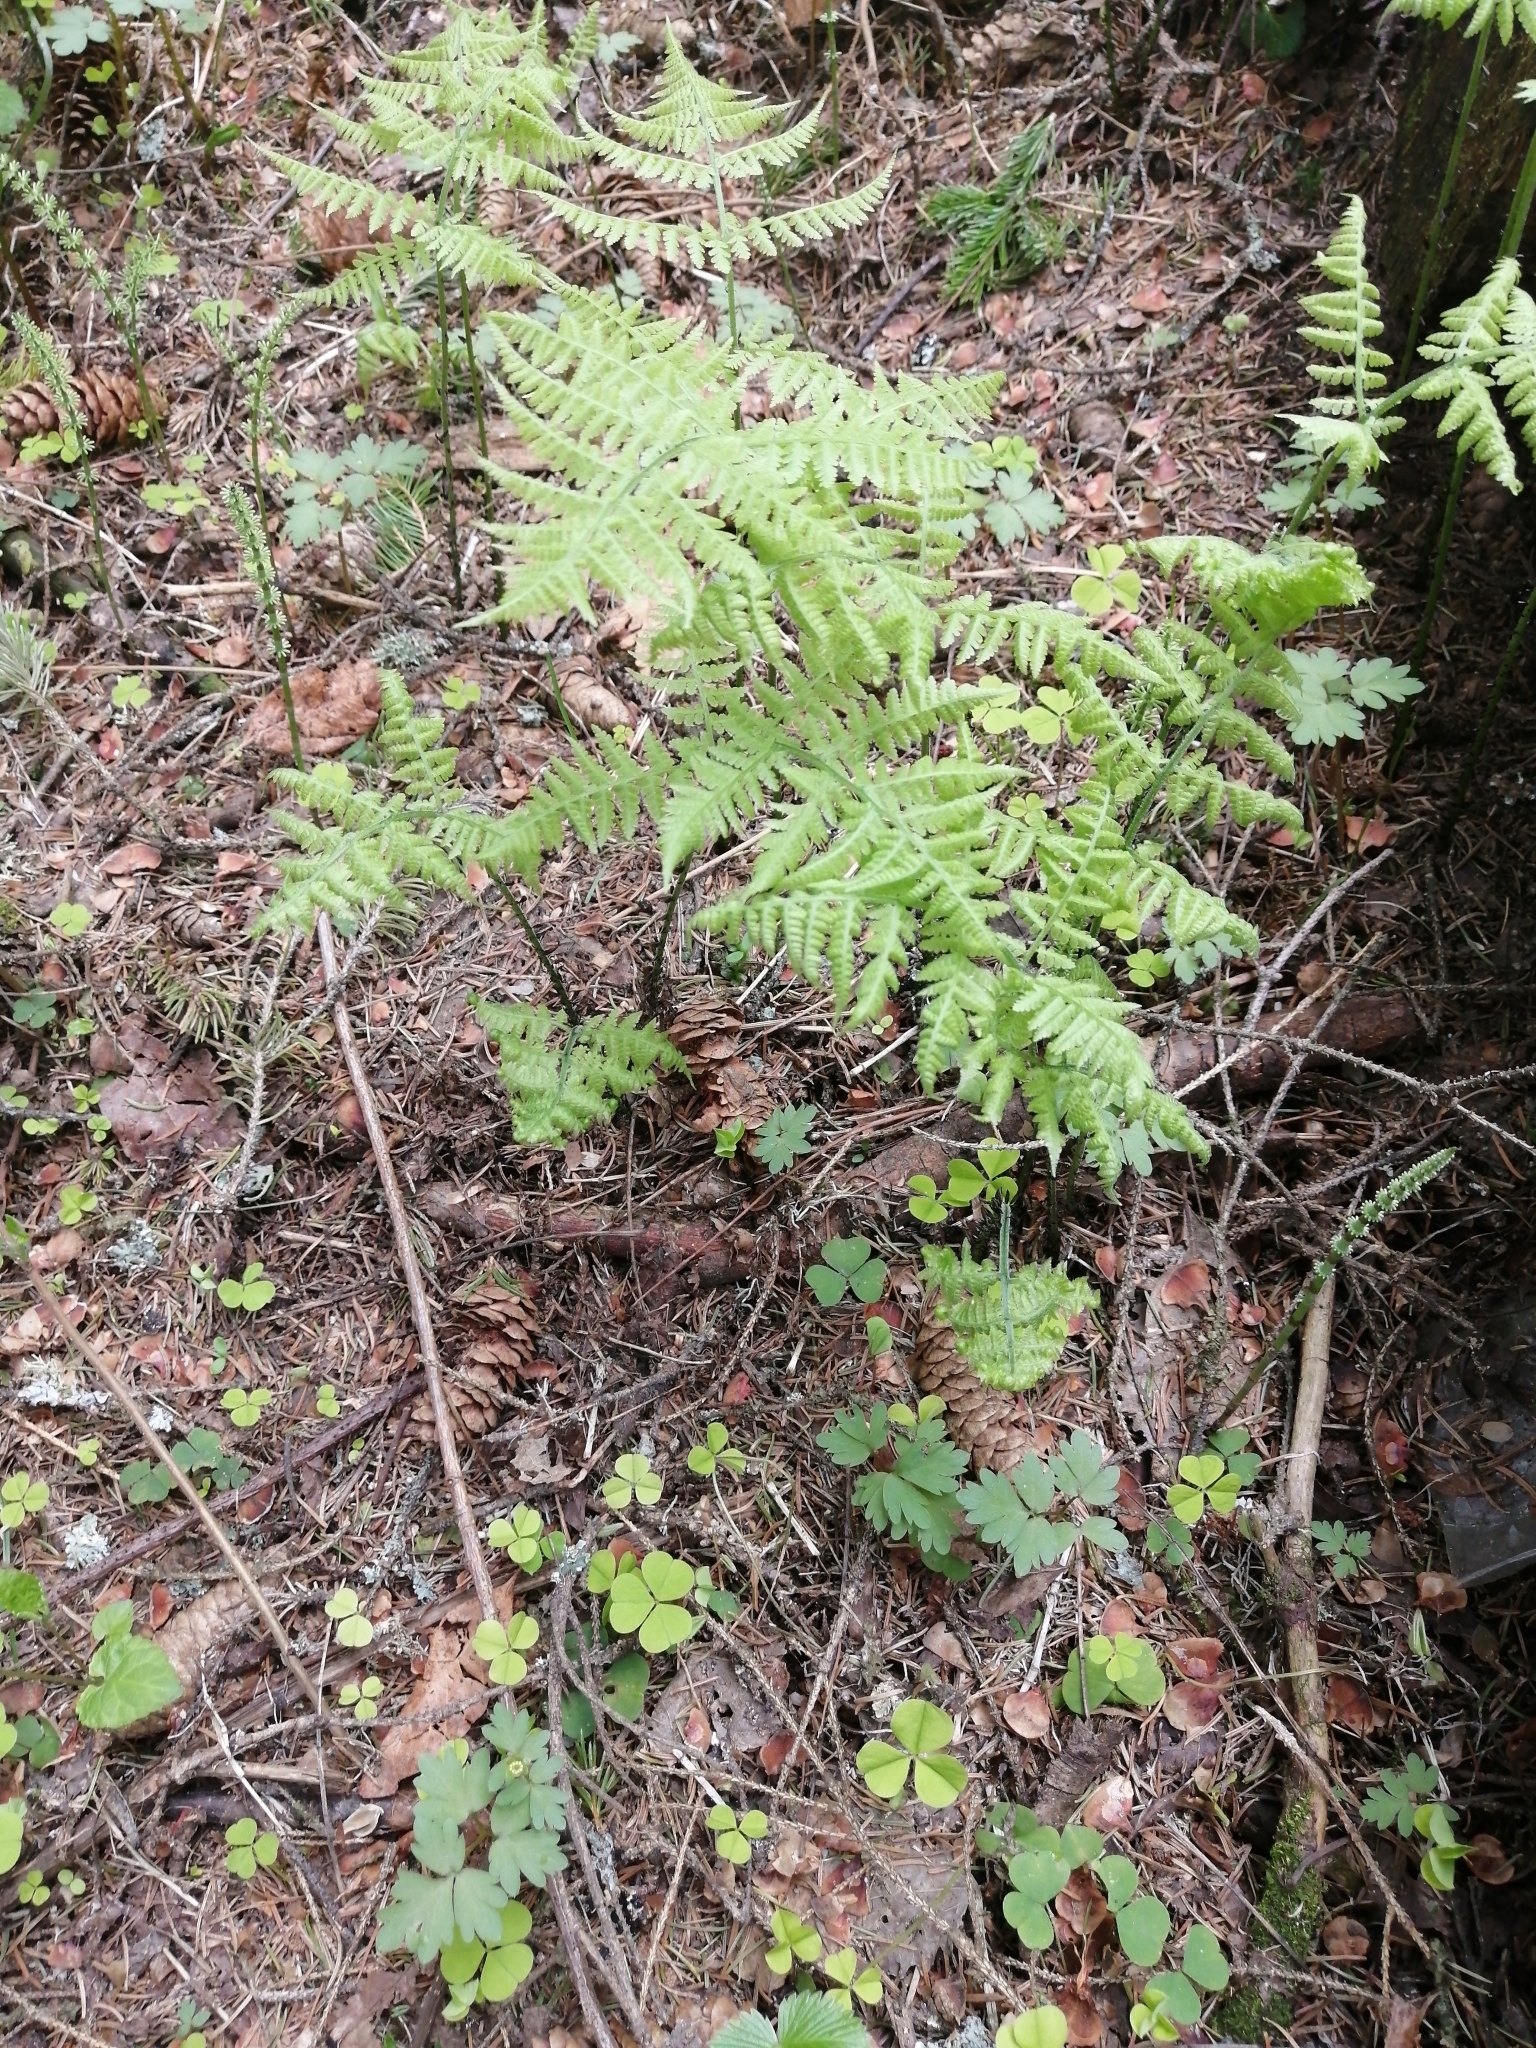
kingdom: Plantae
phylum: Tracheophyta
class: Polypodiopsida
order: Polypodiales
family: Cystopteridaceae
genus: Gymnocarpium
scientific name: Gymnocarpium dryopteris
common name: Oak fern
